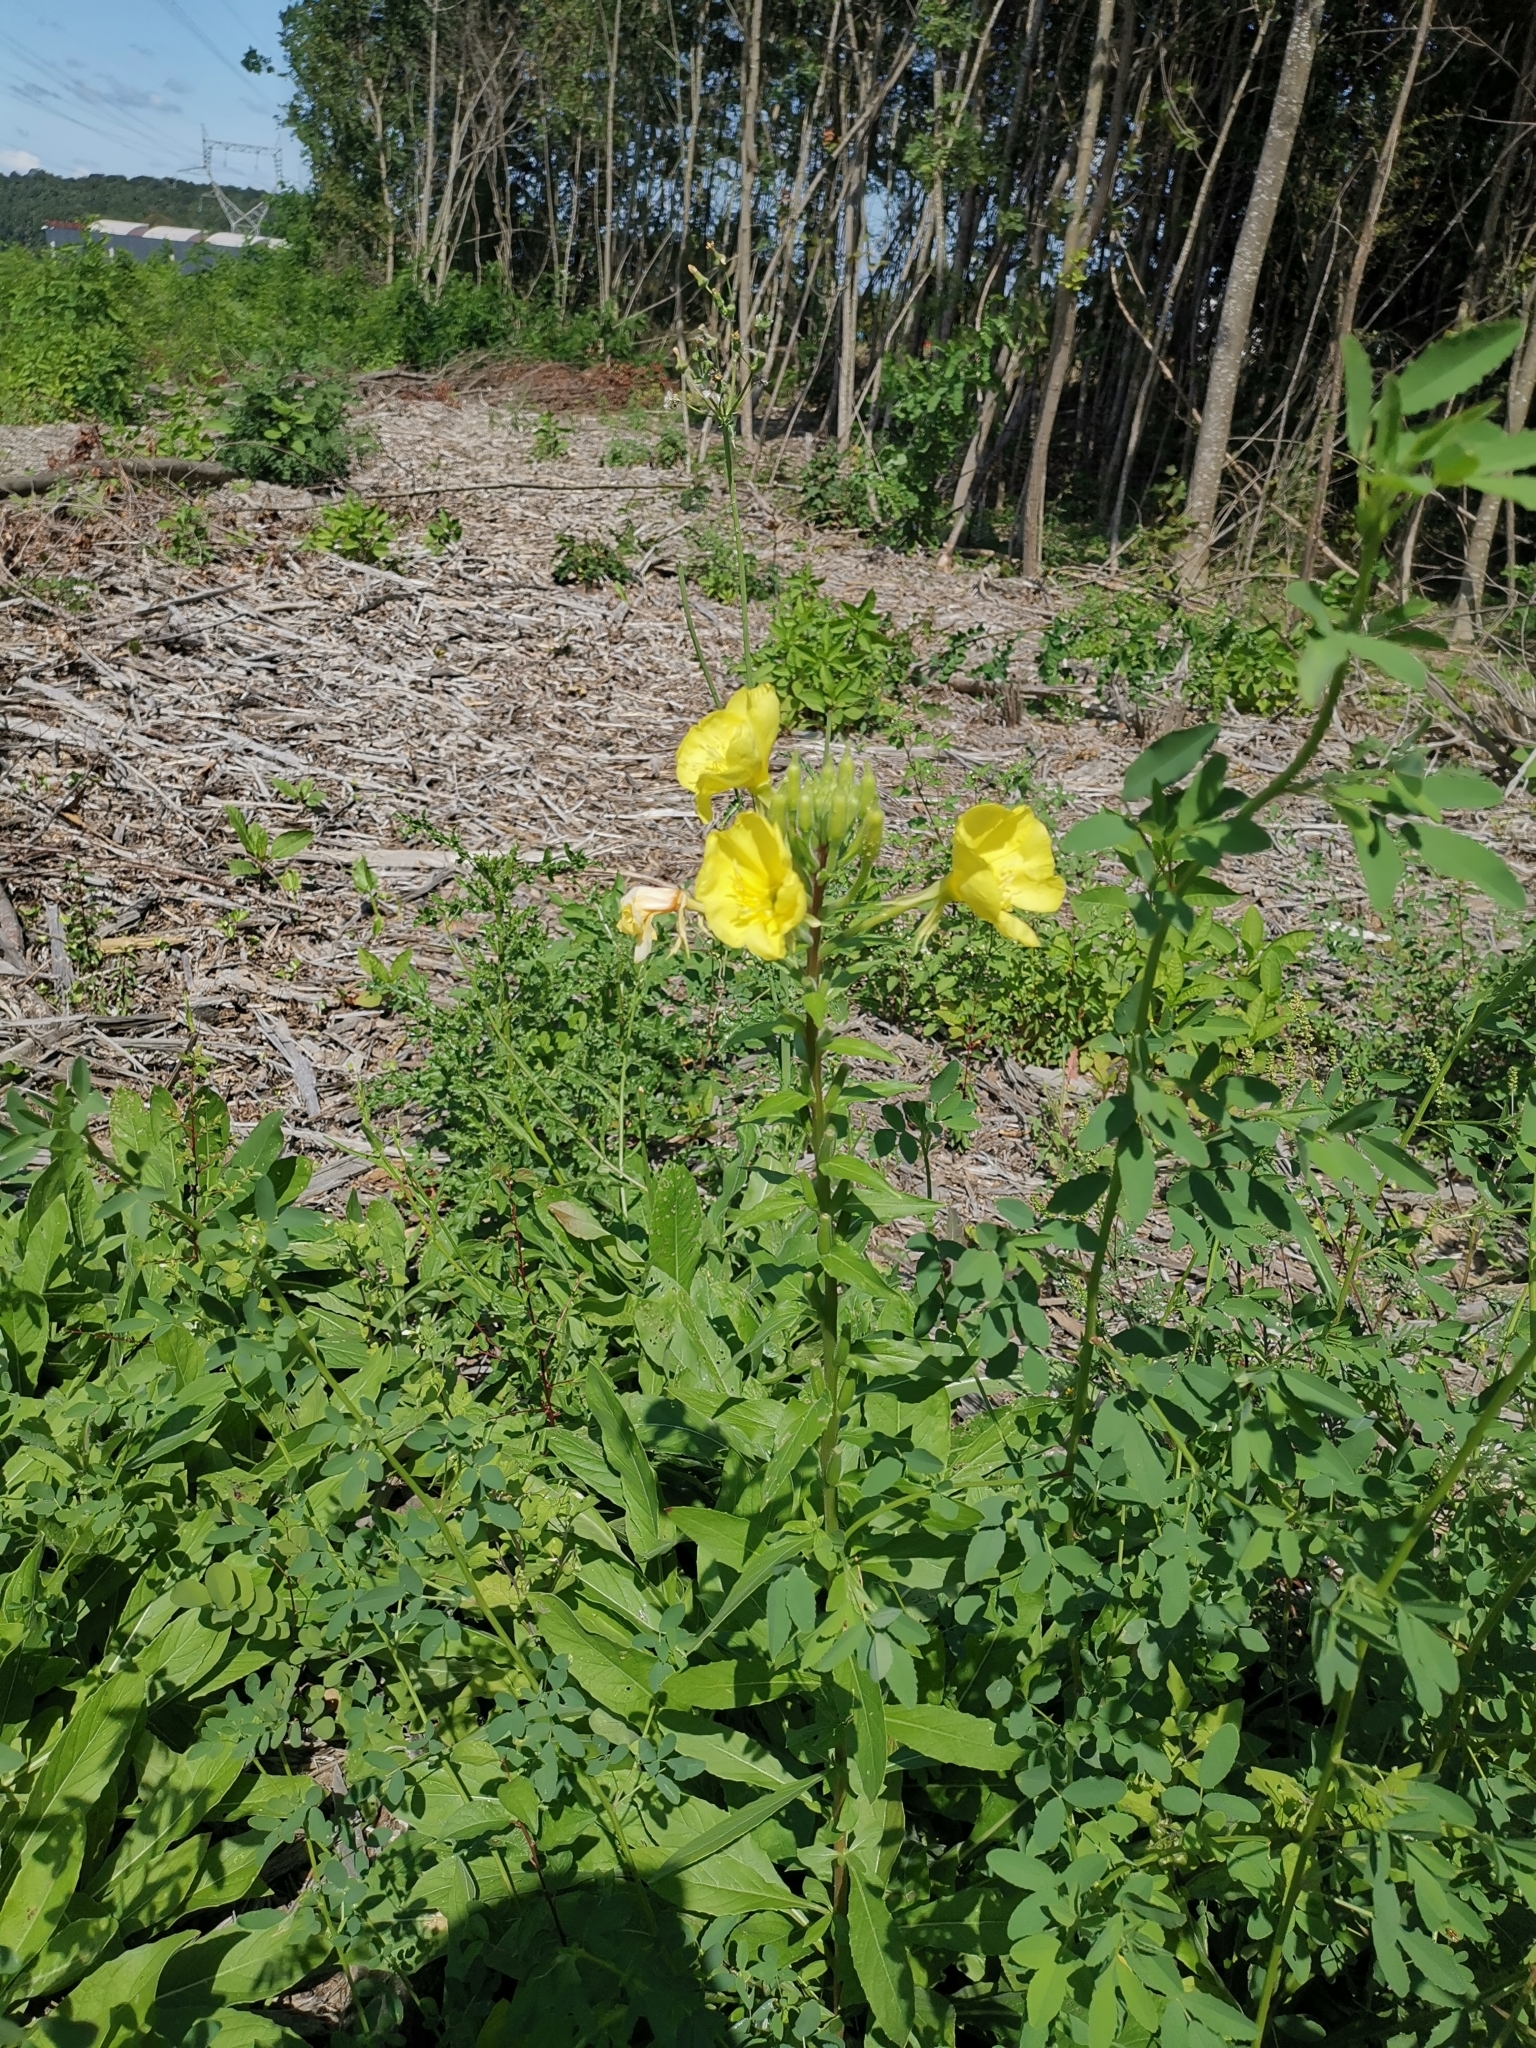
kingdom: Plantae
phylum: Tracheophyta
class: Magnoliopsida
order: Myrtales
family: Onagraceae
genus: Oenothera
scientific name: Oenothera biennis
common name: Common evening-primrose
